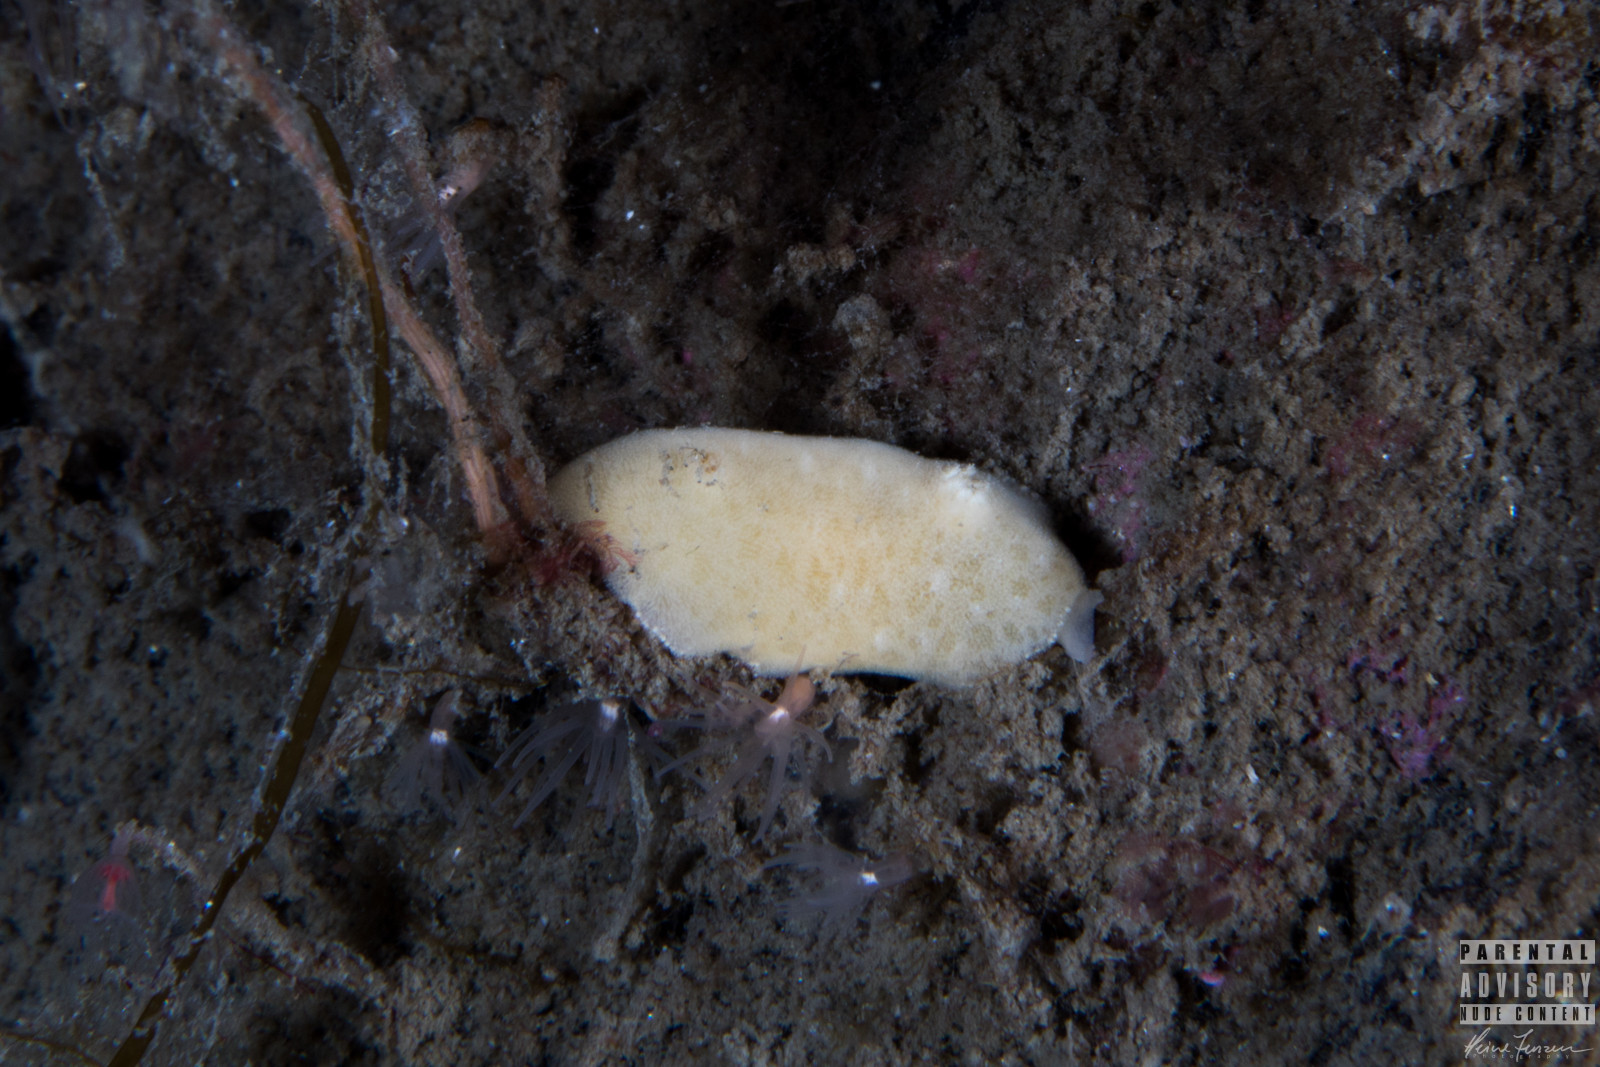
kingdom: Animalia
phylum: Mollusca
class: Gastropoda
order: Nudibranchia
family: Discodorididae
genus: Jorunna
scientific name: Jorunna tomentosa
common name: Grey sea slug
